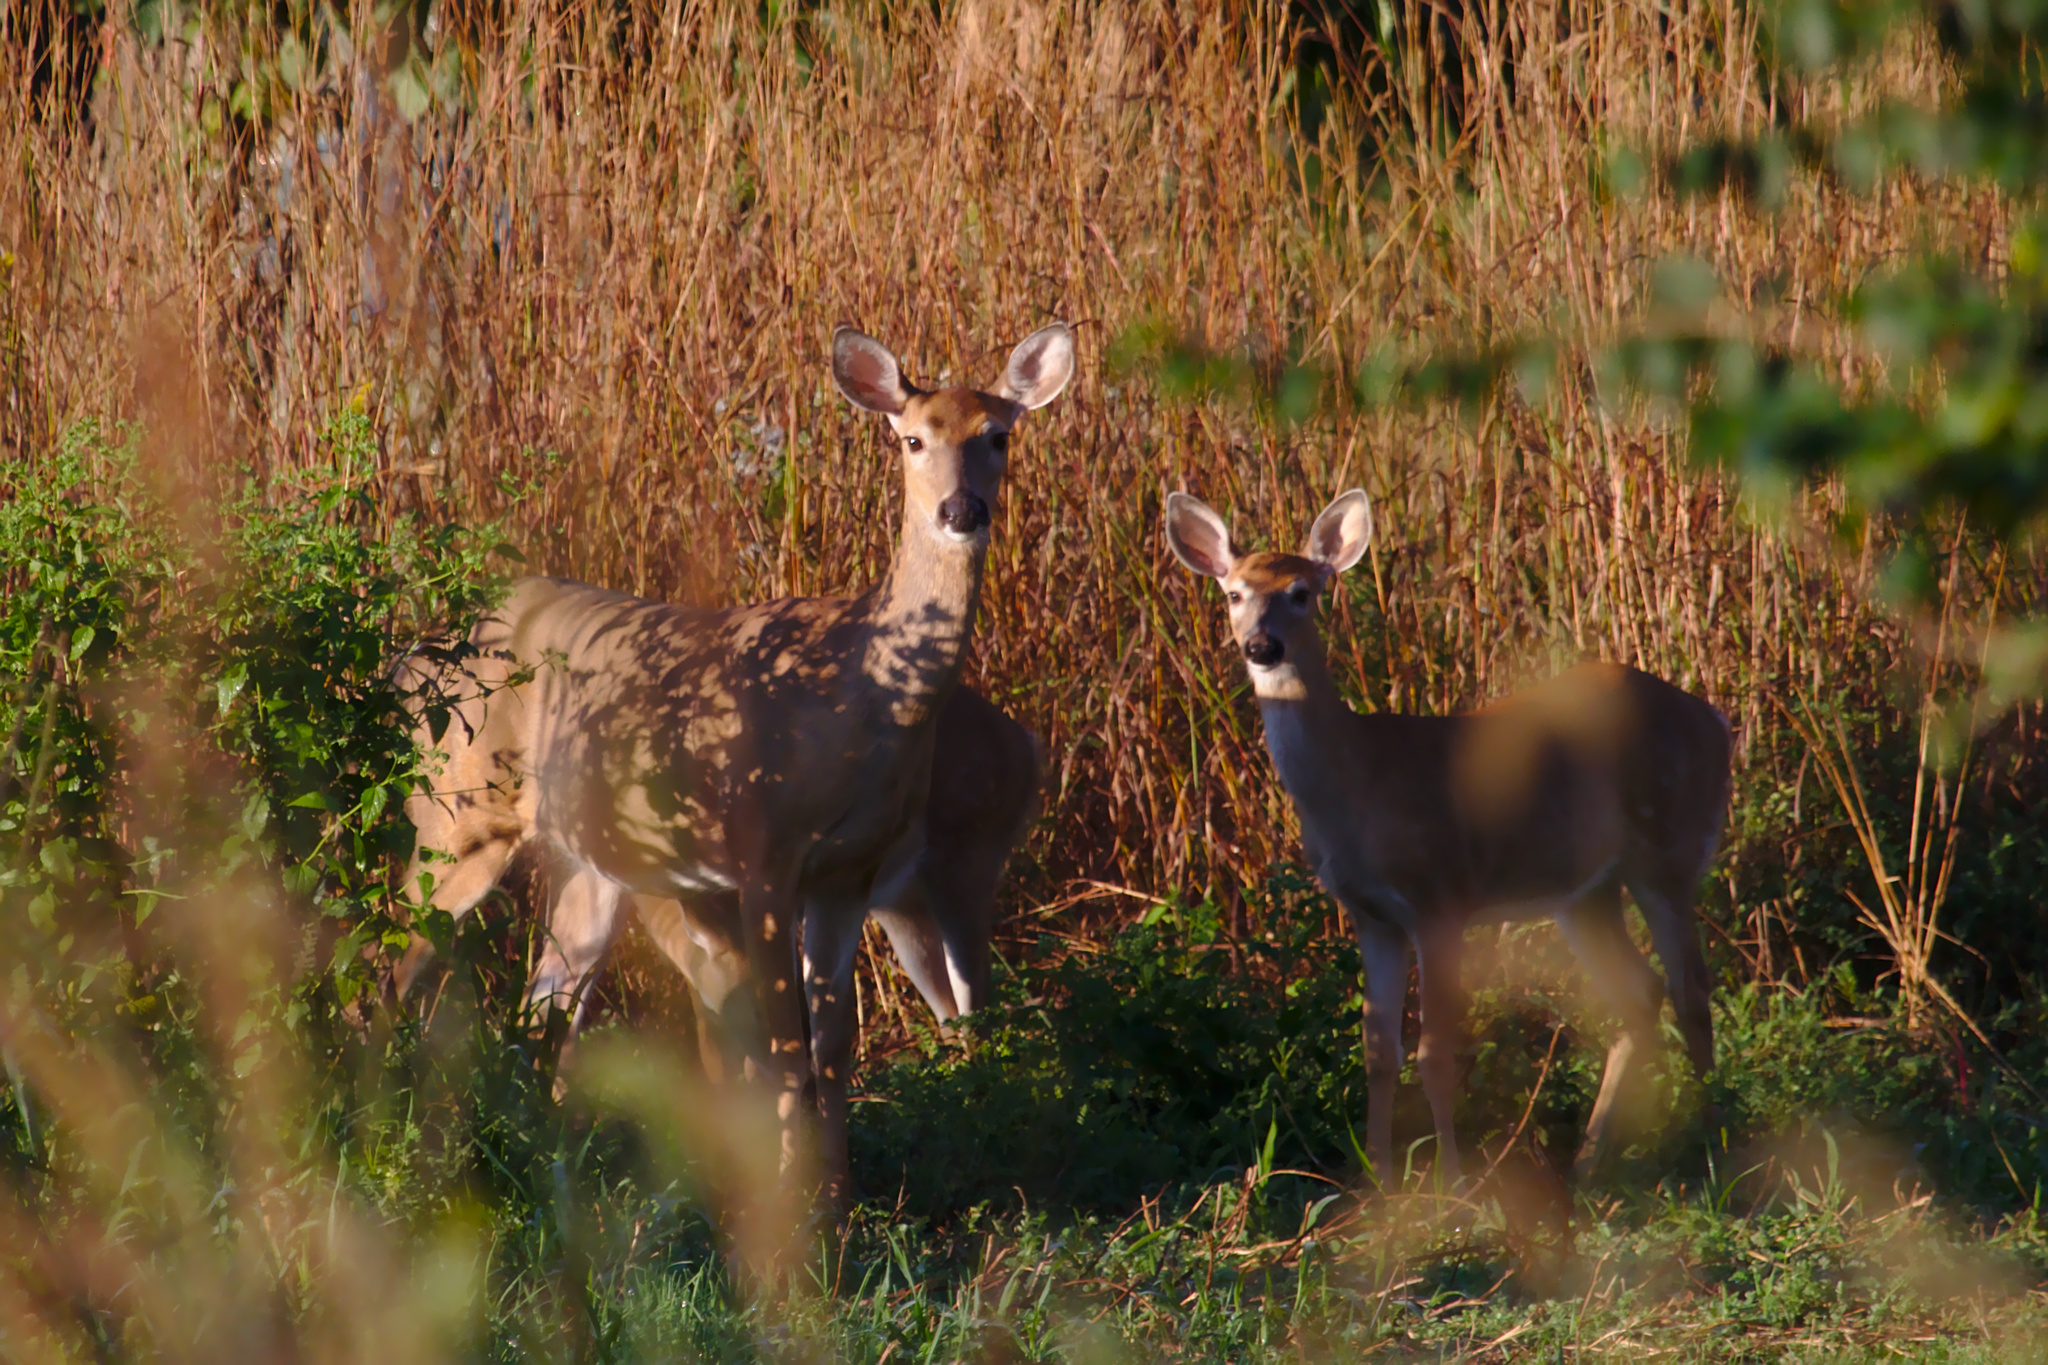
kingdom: Animalia
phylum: Chordata
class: Mammalia
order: Artiodactyla
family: Cervidae
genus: Odocoileus
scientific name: Odocoileus virginianus
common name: White-tailed deer
